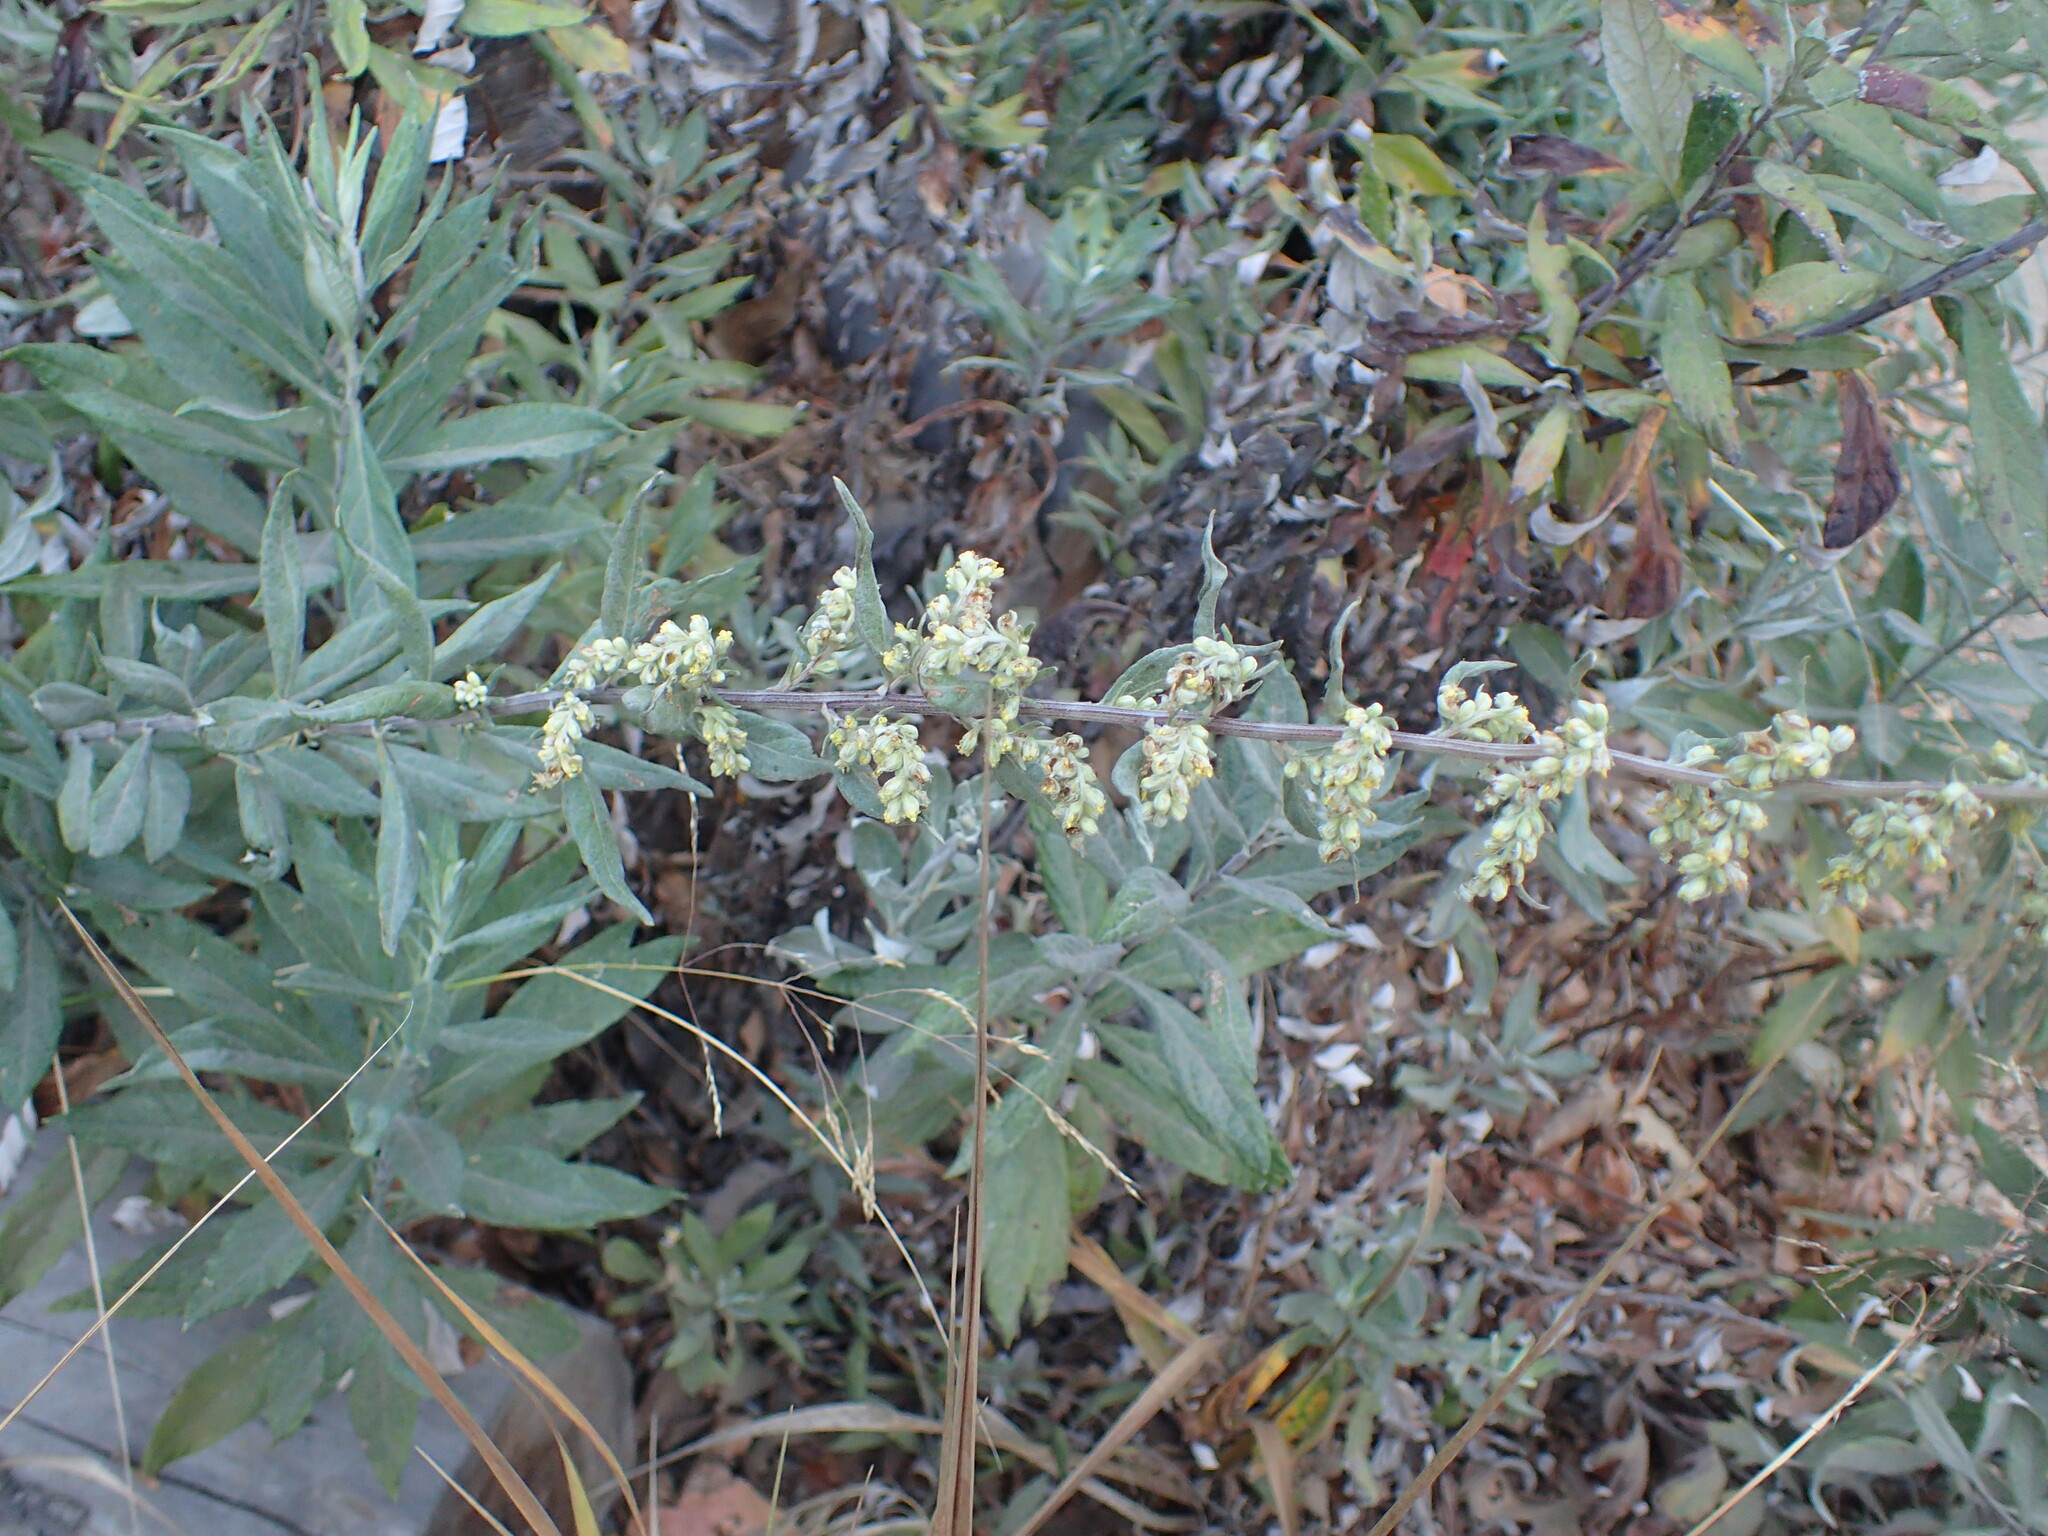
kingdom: Plantae
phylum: Tracheophyta
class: Magnoliopsida
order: Asterales
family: Asteraceae
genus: Artemisia
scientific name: Artemisia douglasiana
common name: Northwest mugwort
